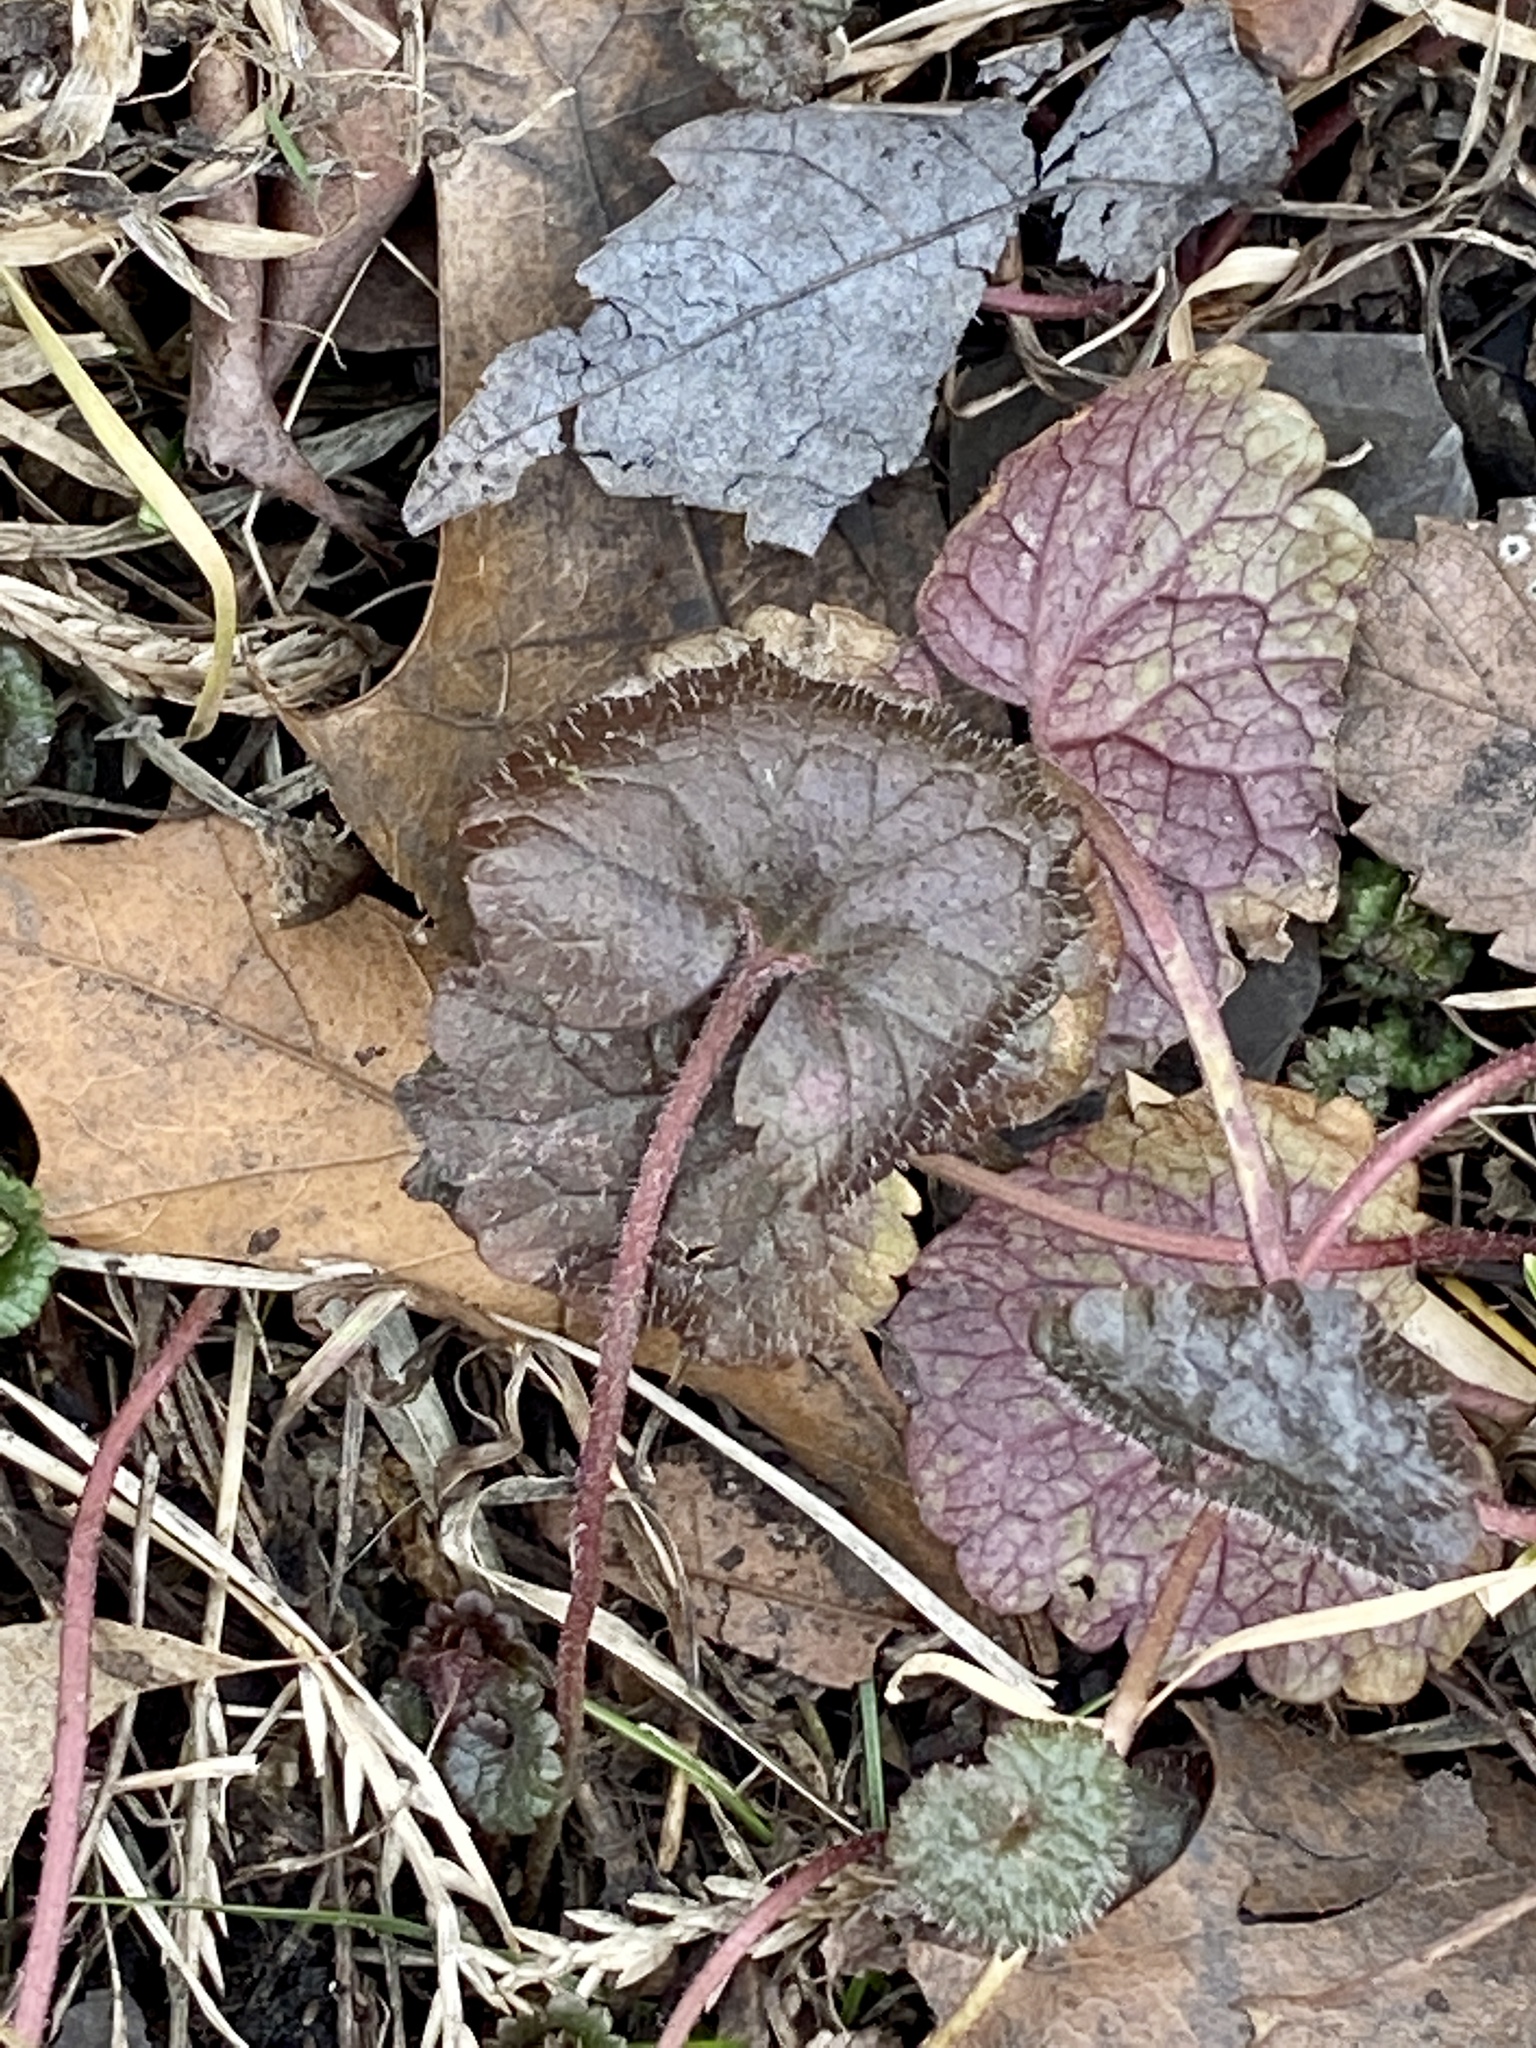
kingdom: Plantae
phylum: Tracheophyta
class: Magnoliopsida
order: Lamiales
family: Lamiaceae
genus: Glechoma
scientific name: Glechoma hederacea
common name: Ground ivy
